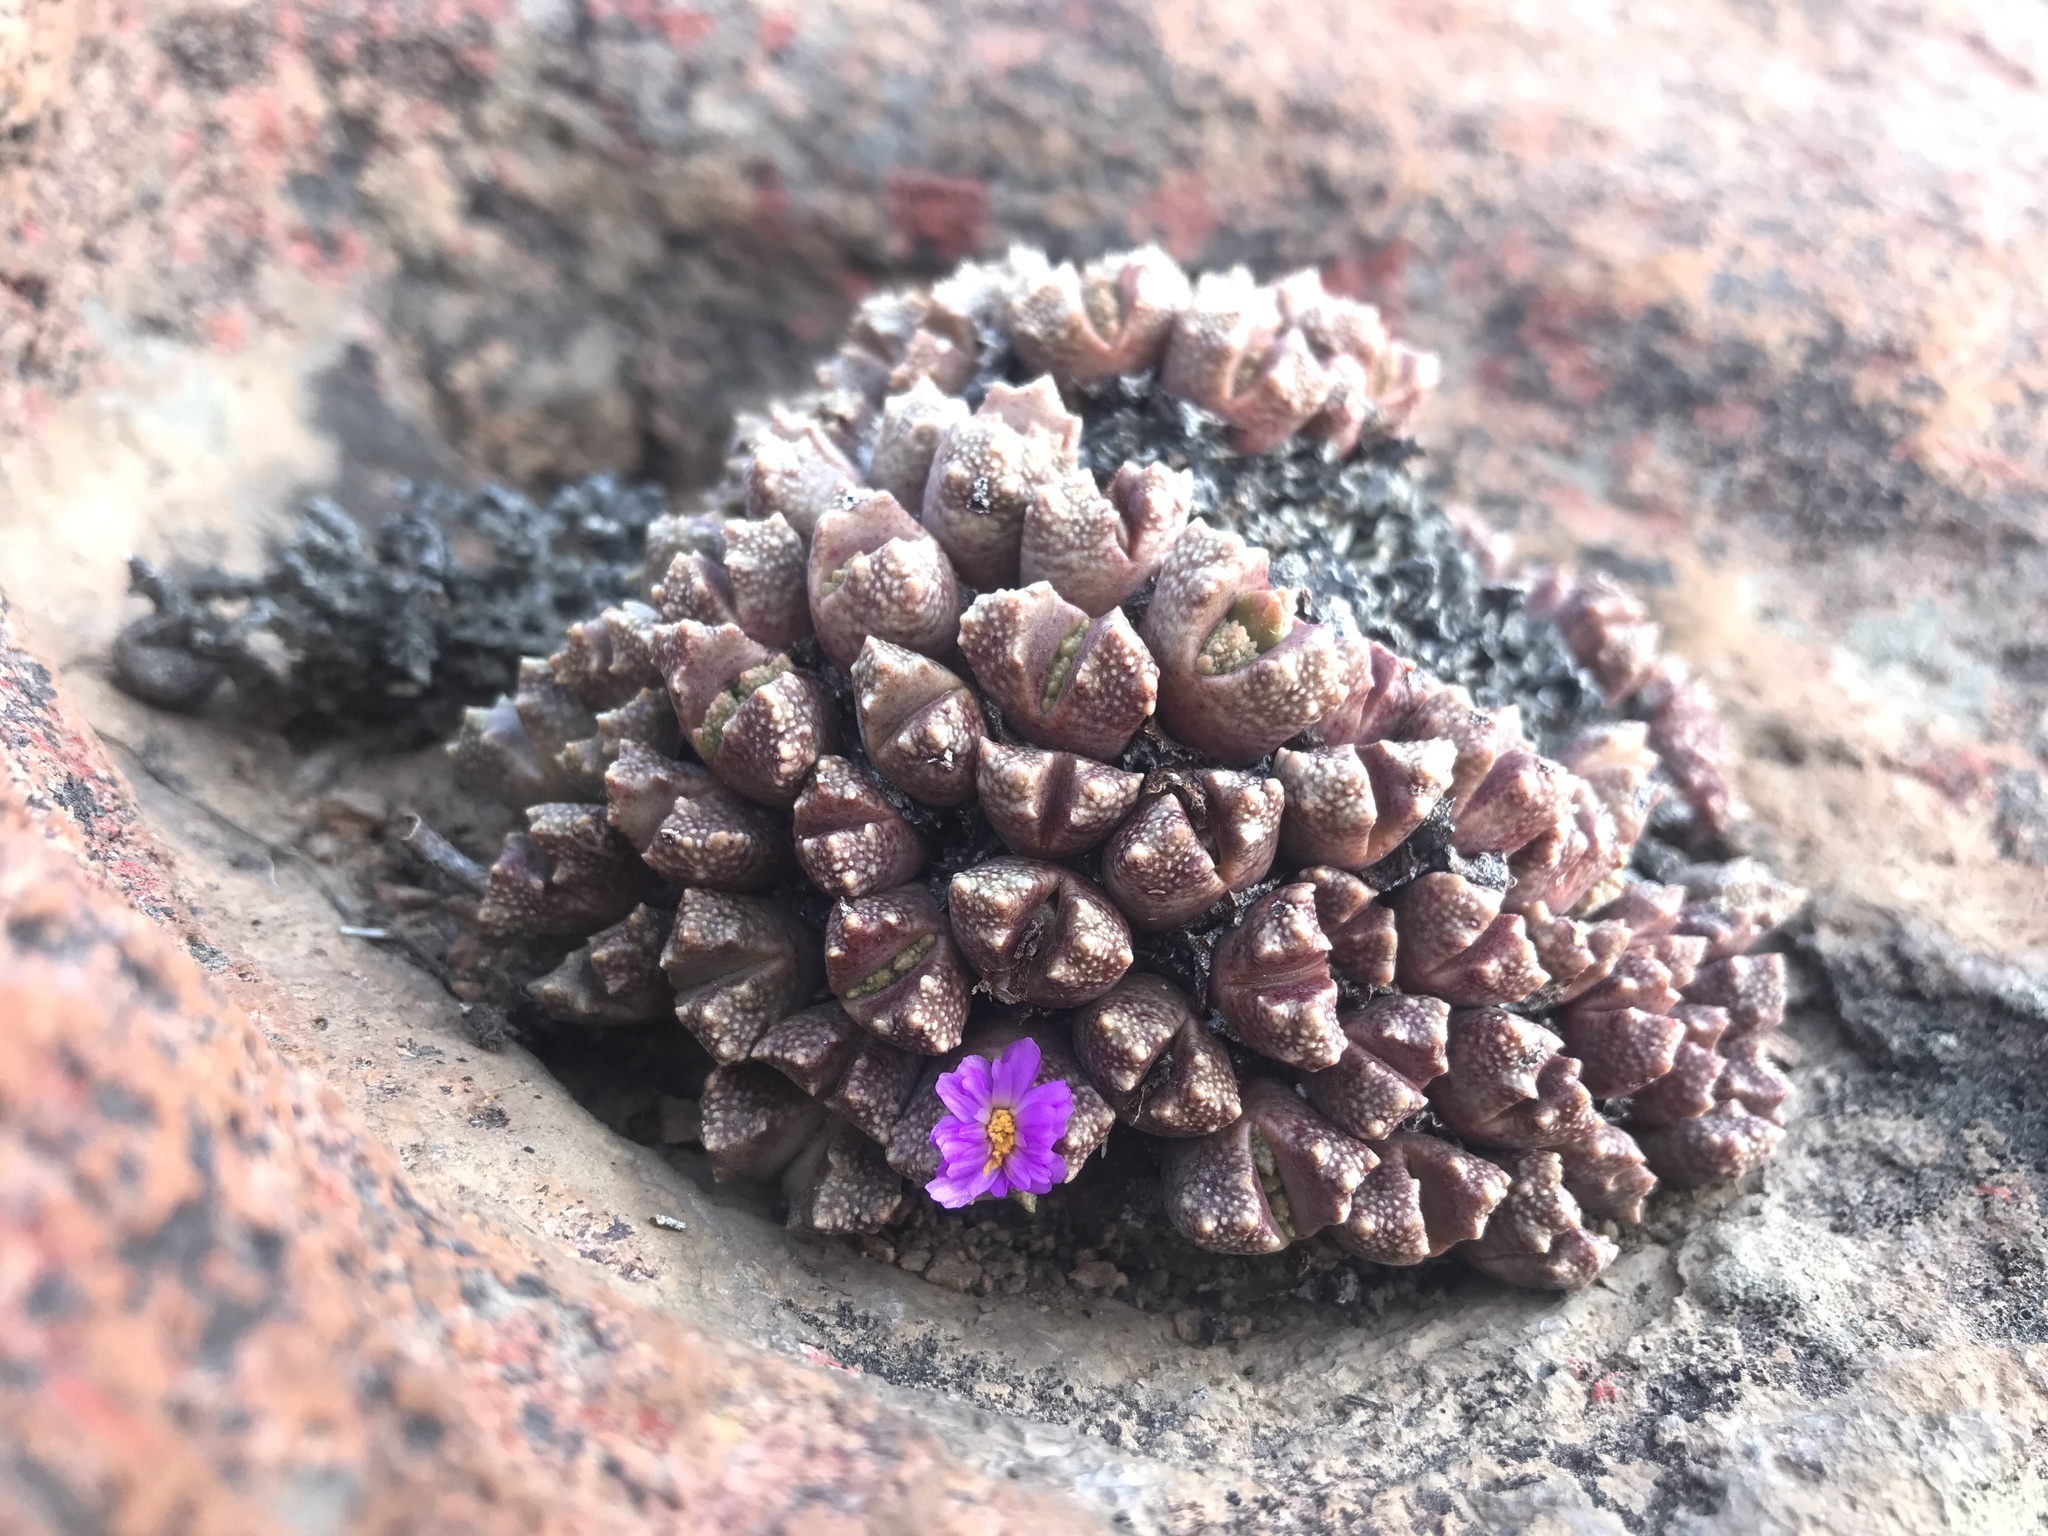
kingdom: Plantae
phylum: Tracheophyta
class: Magnoliopsida
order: Caryophyllales
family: Aizoaceae
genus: Conophytum
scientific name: Conophytum khamiesbergense
